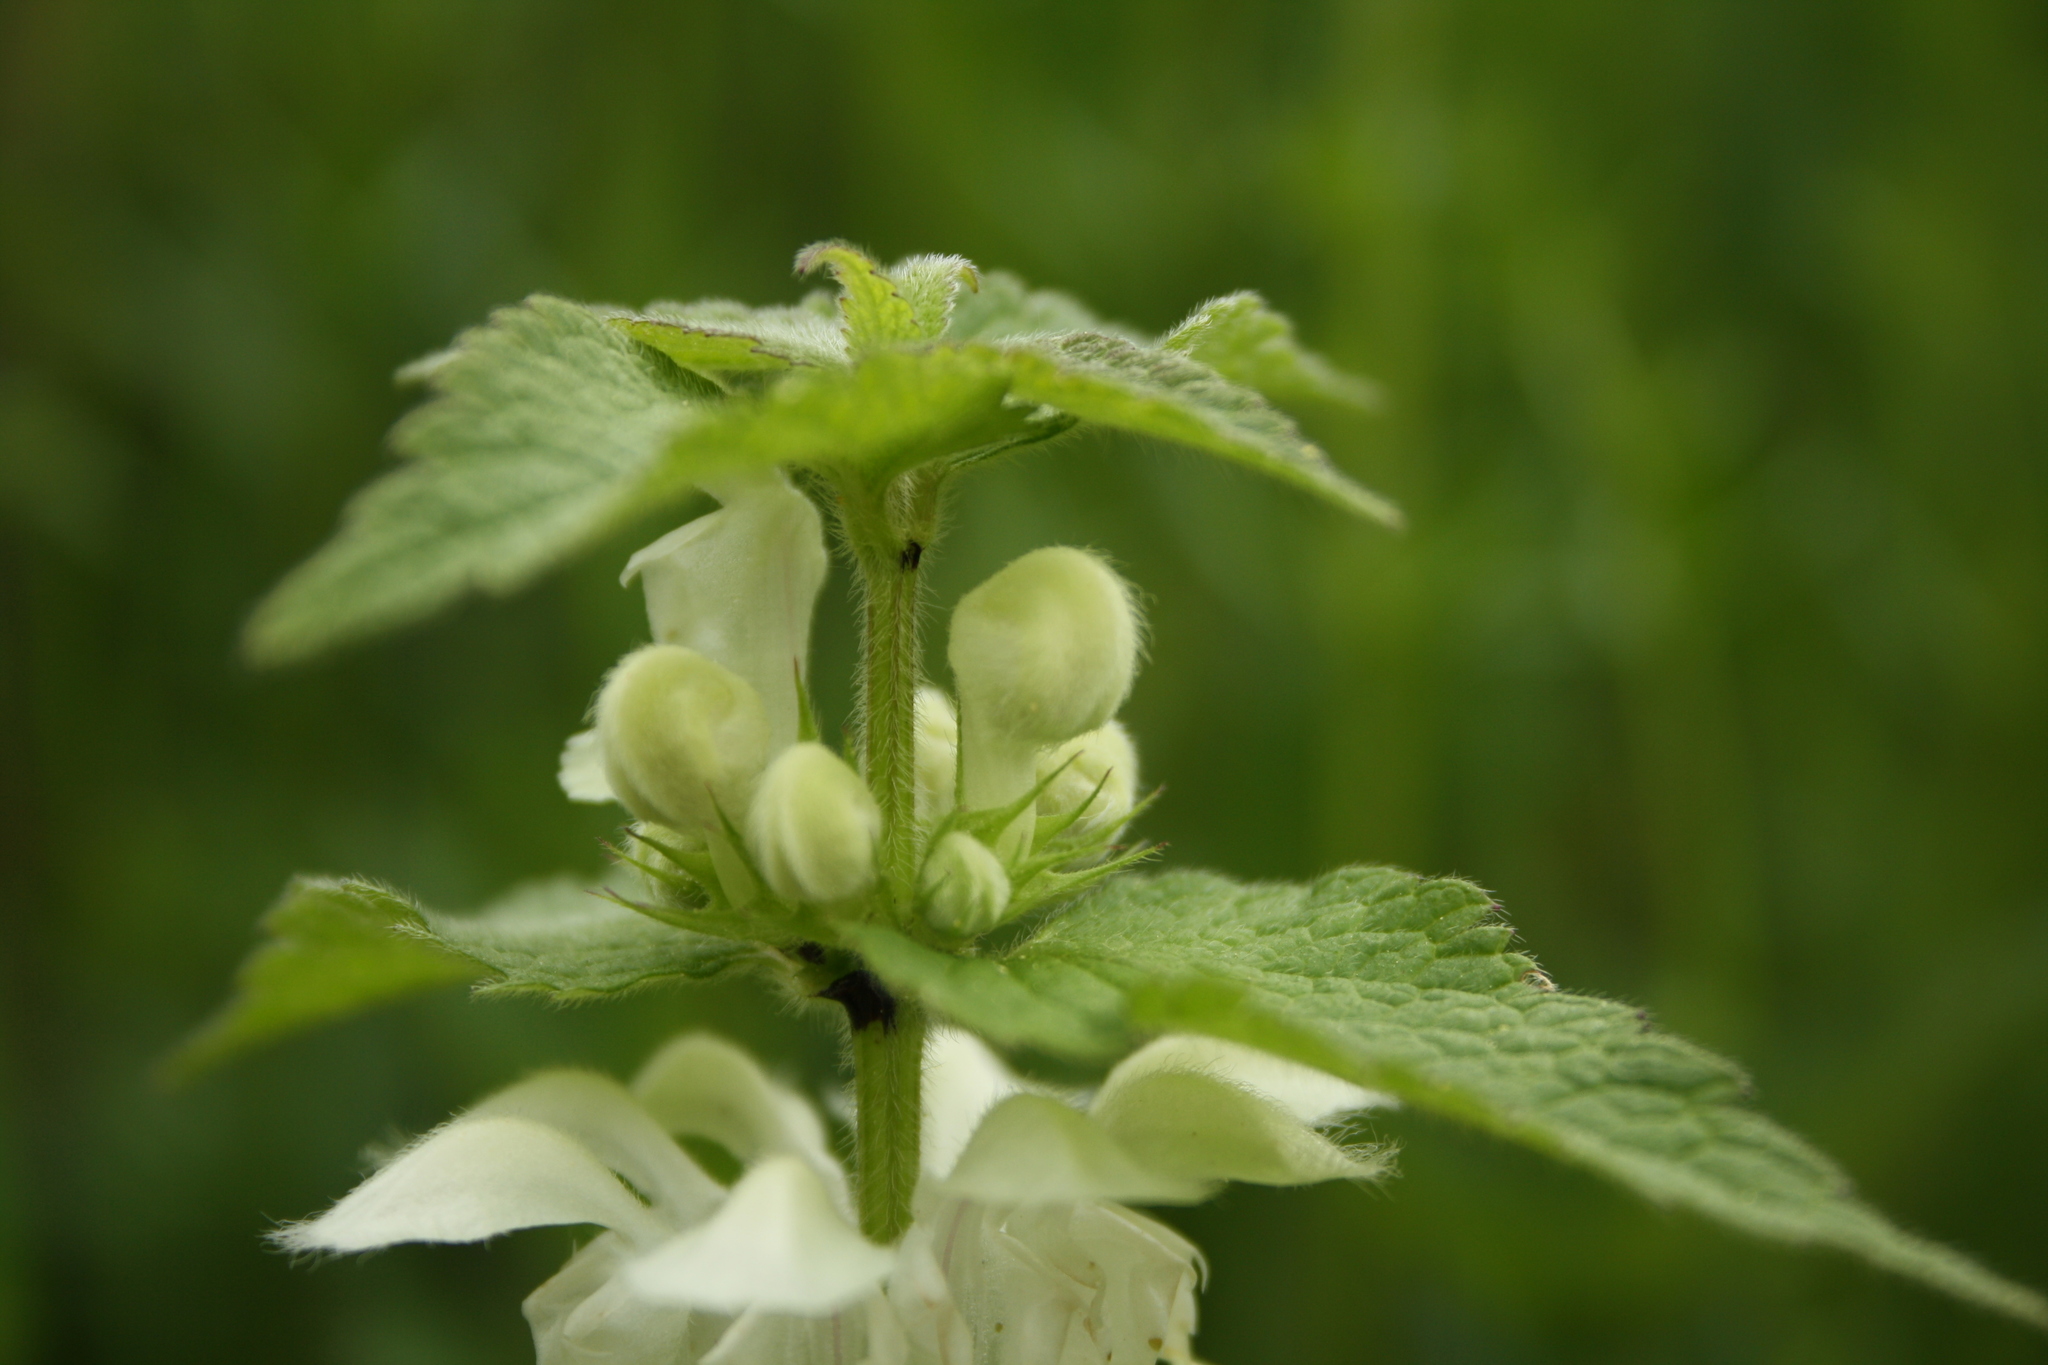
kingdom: Plantae
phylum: Tracheophyta
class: Magnoliopsida
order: Lamiales
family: Lamiaceae
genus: Lamium
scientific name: Lamium album
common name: White dead-nettle
